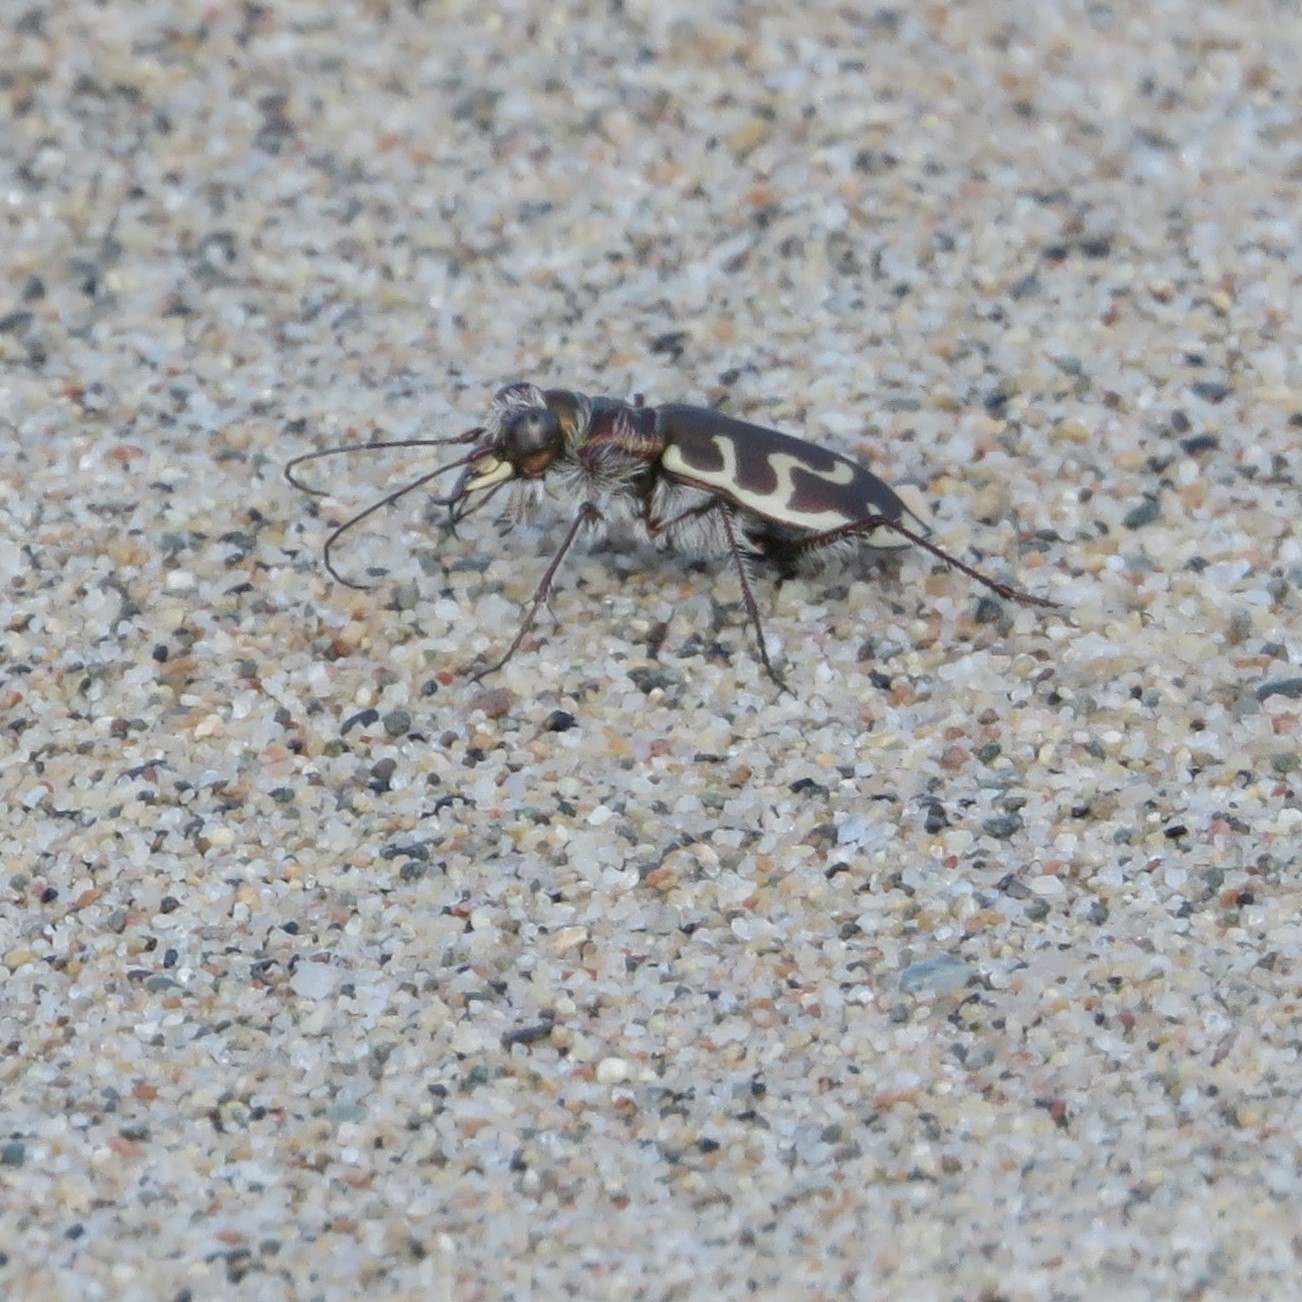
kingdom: Animalia
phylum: Arthropoda
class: Insecta
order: Coleoptera
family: Carabidae
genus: Cicindela
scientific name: Cicindela hirticollis
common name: Hairy-necked tiger beetle
